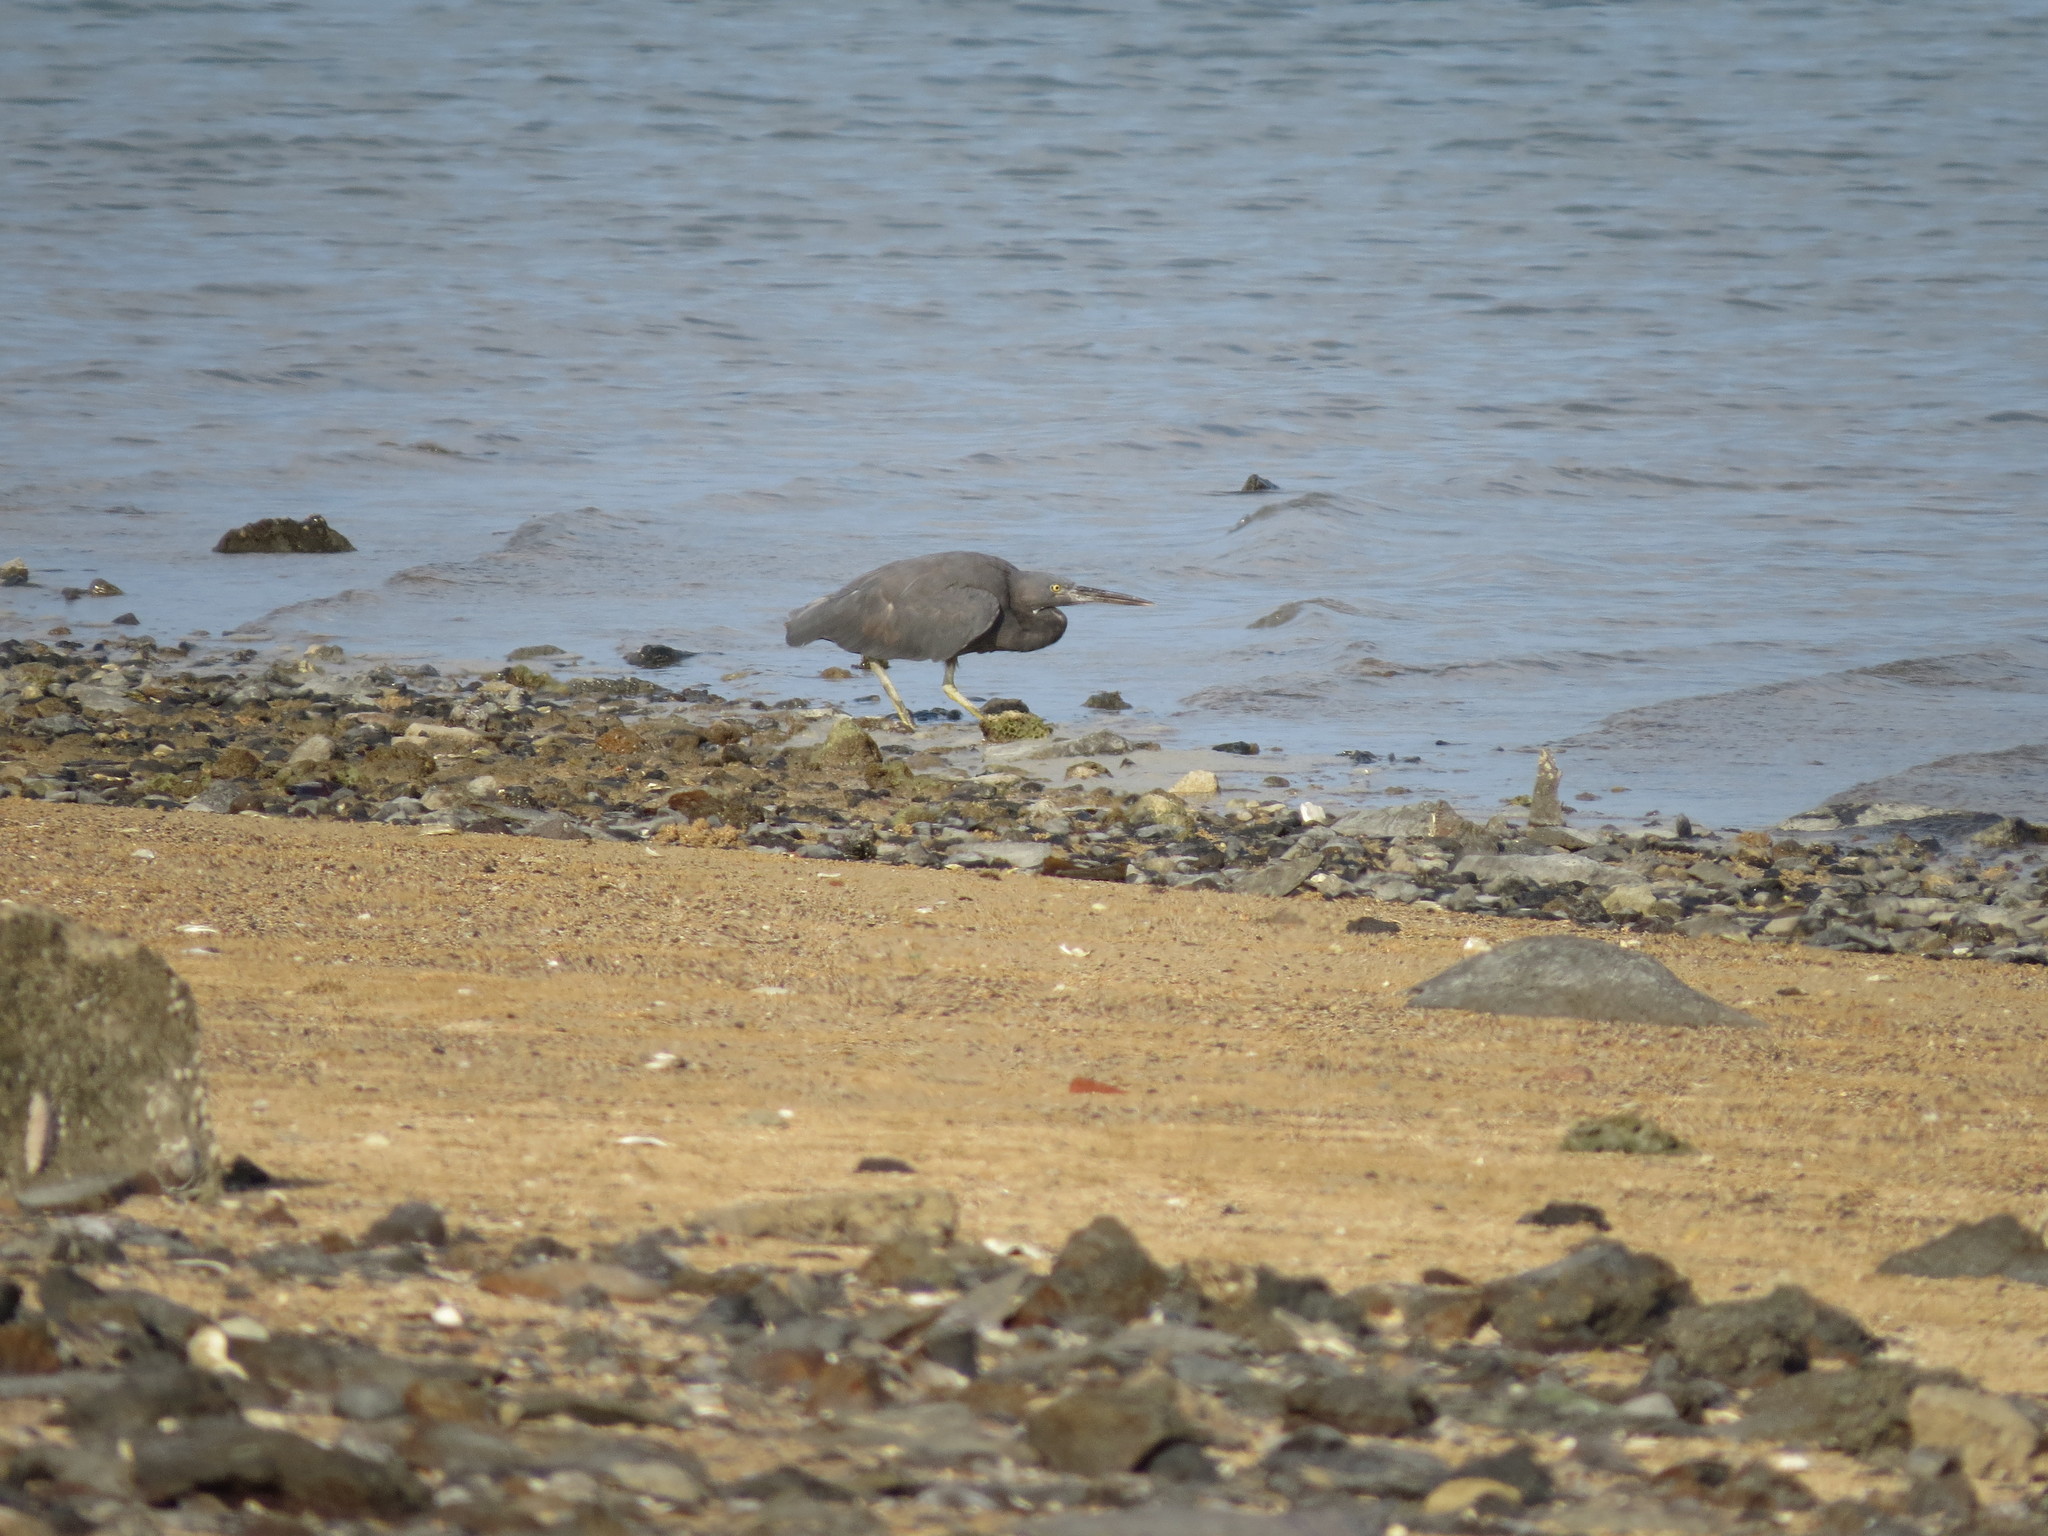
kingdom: Animalia
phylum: Chordata
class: Aves
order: Pelecaniformes
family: Ardeidae
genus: Egretta
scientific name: Egretta sacra
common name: Pacific reef heron
